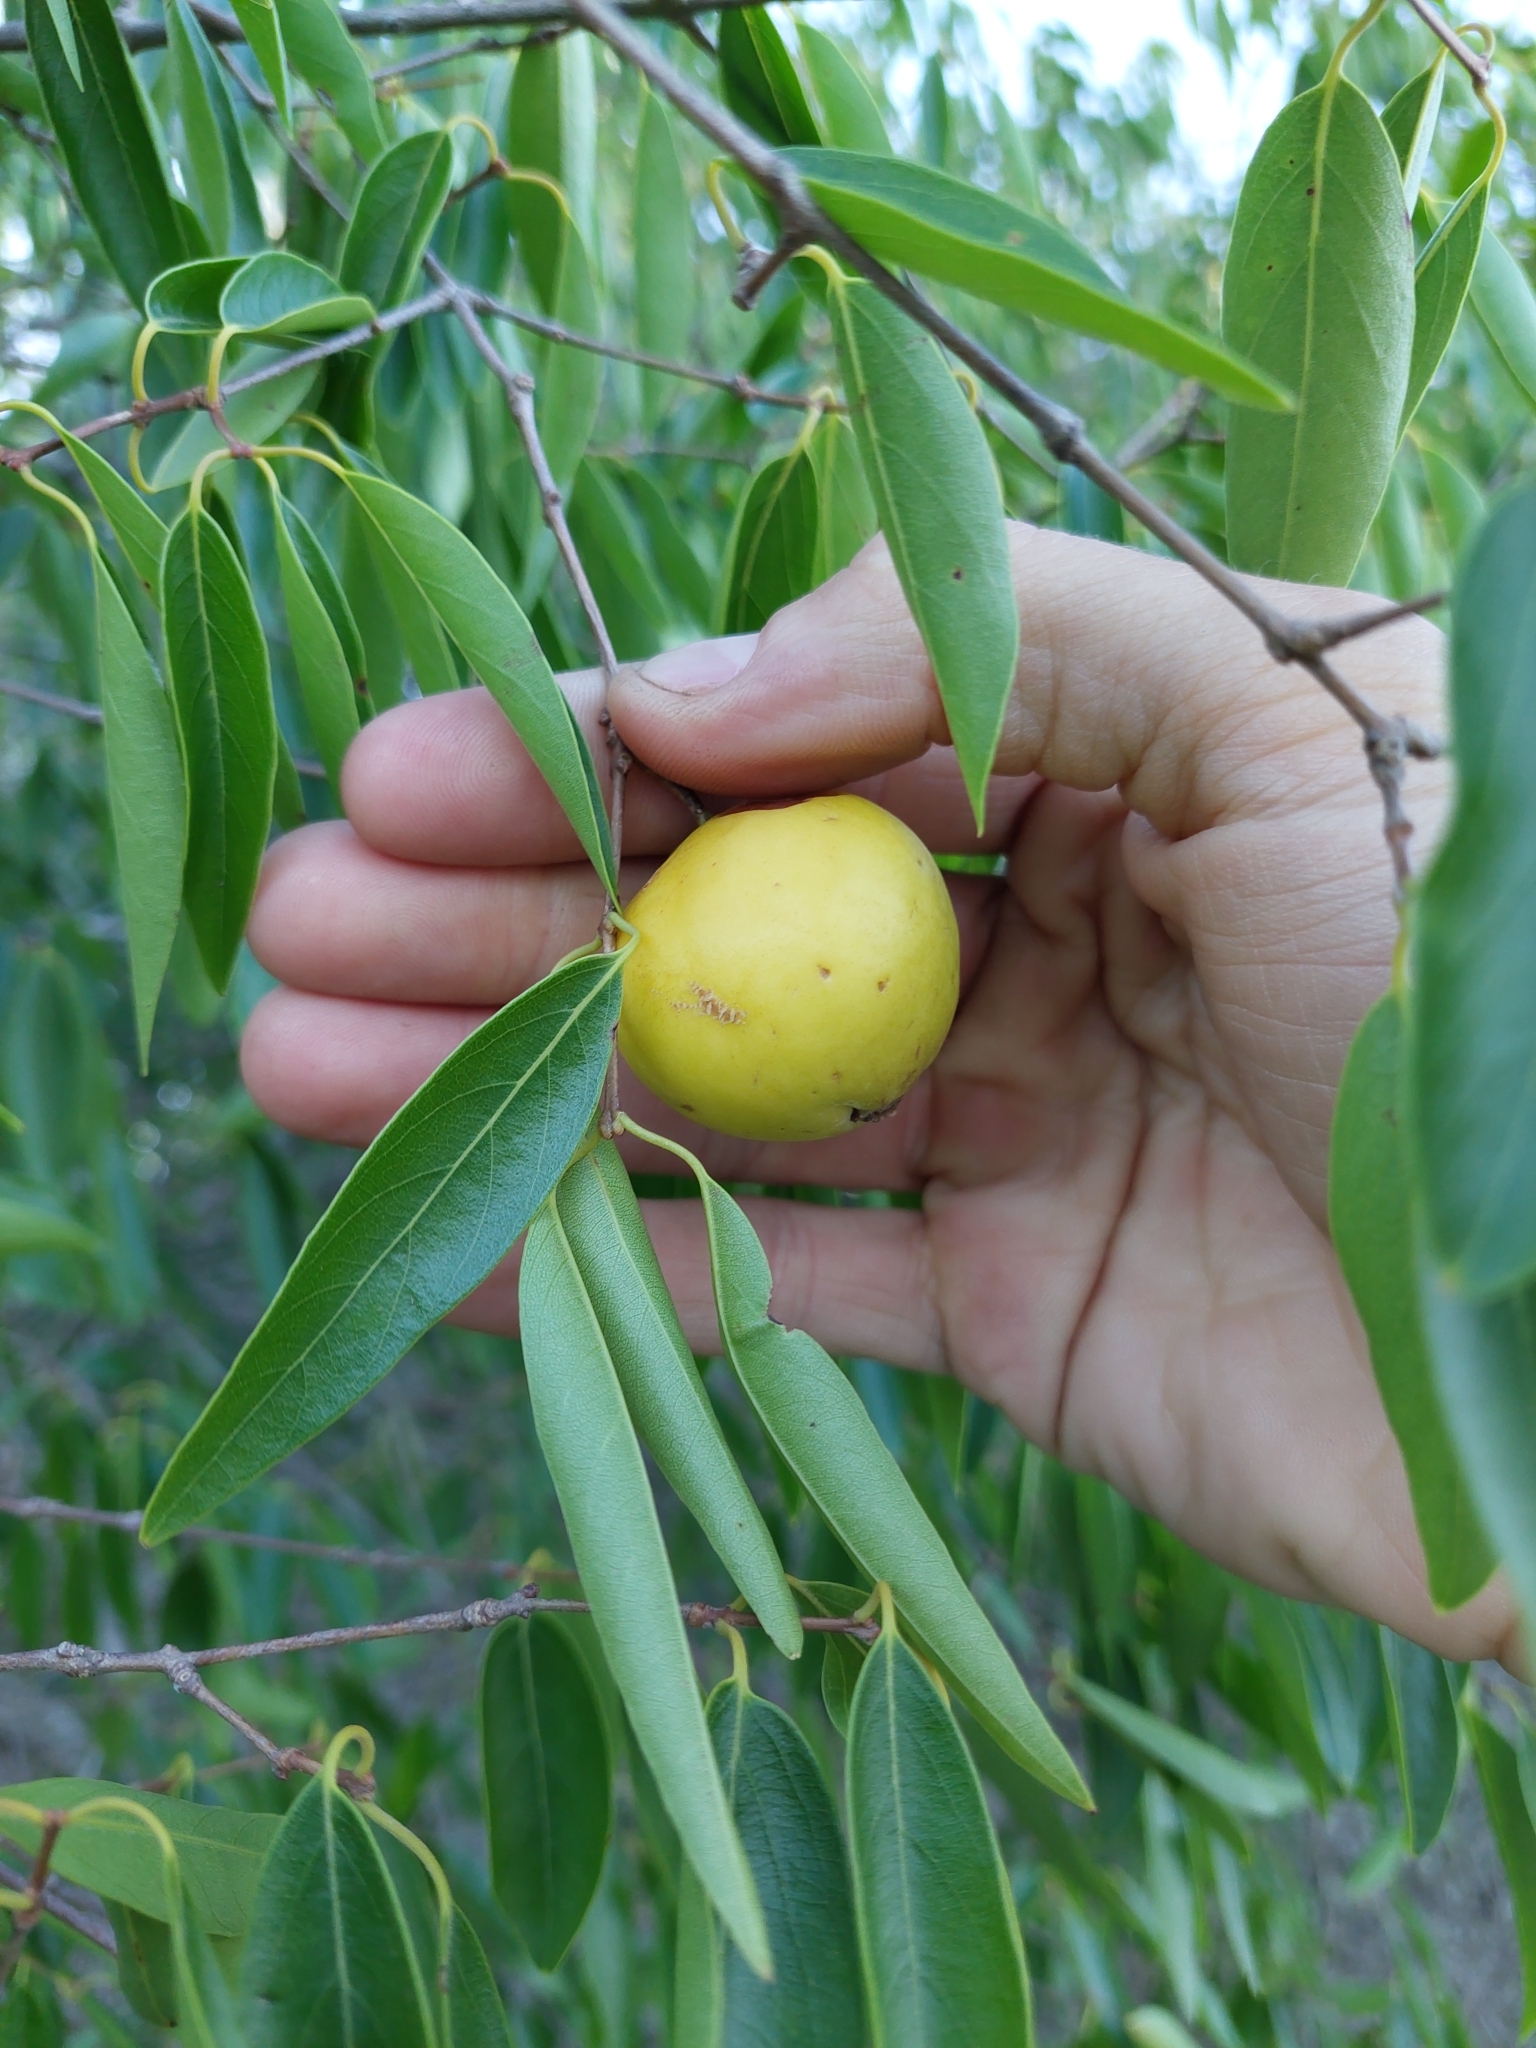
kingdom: Plantae
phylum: Tracheophyta
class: Magnoliopsida
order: Myrtales
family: Myrtaceae
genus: Eugenia
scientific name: Eugenia myrcianthes
